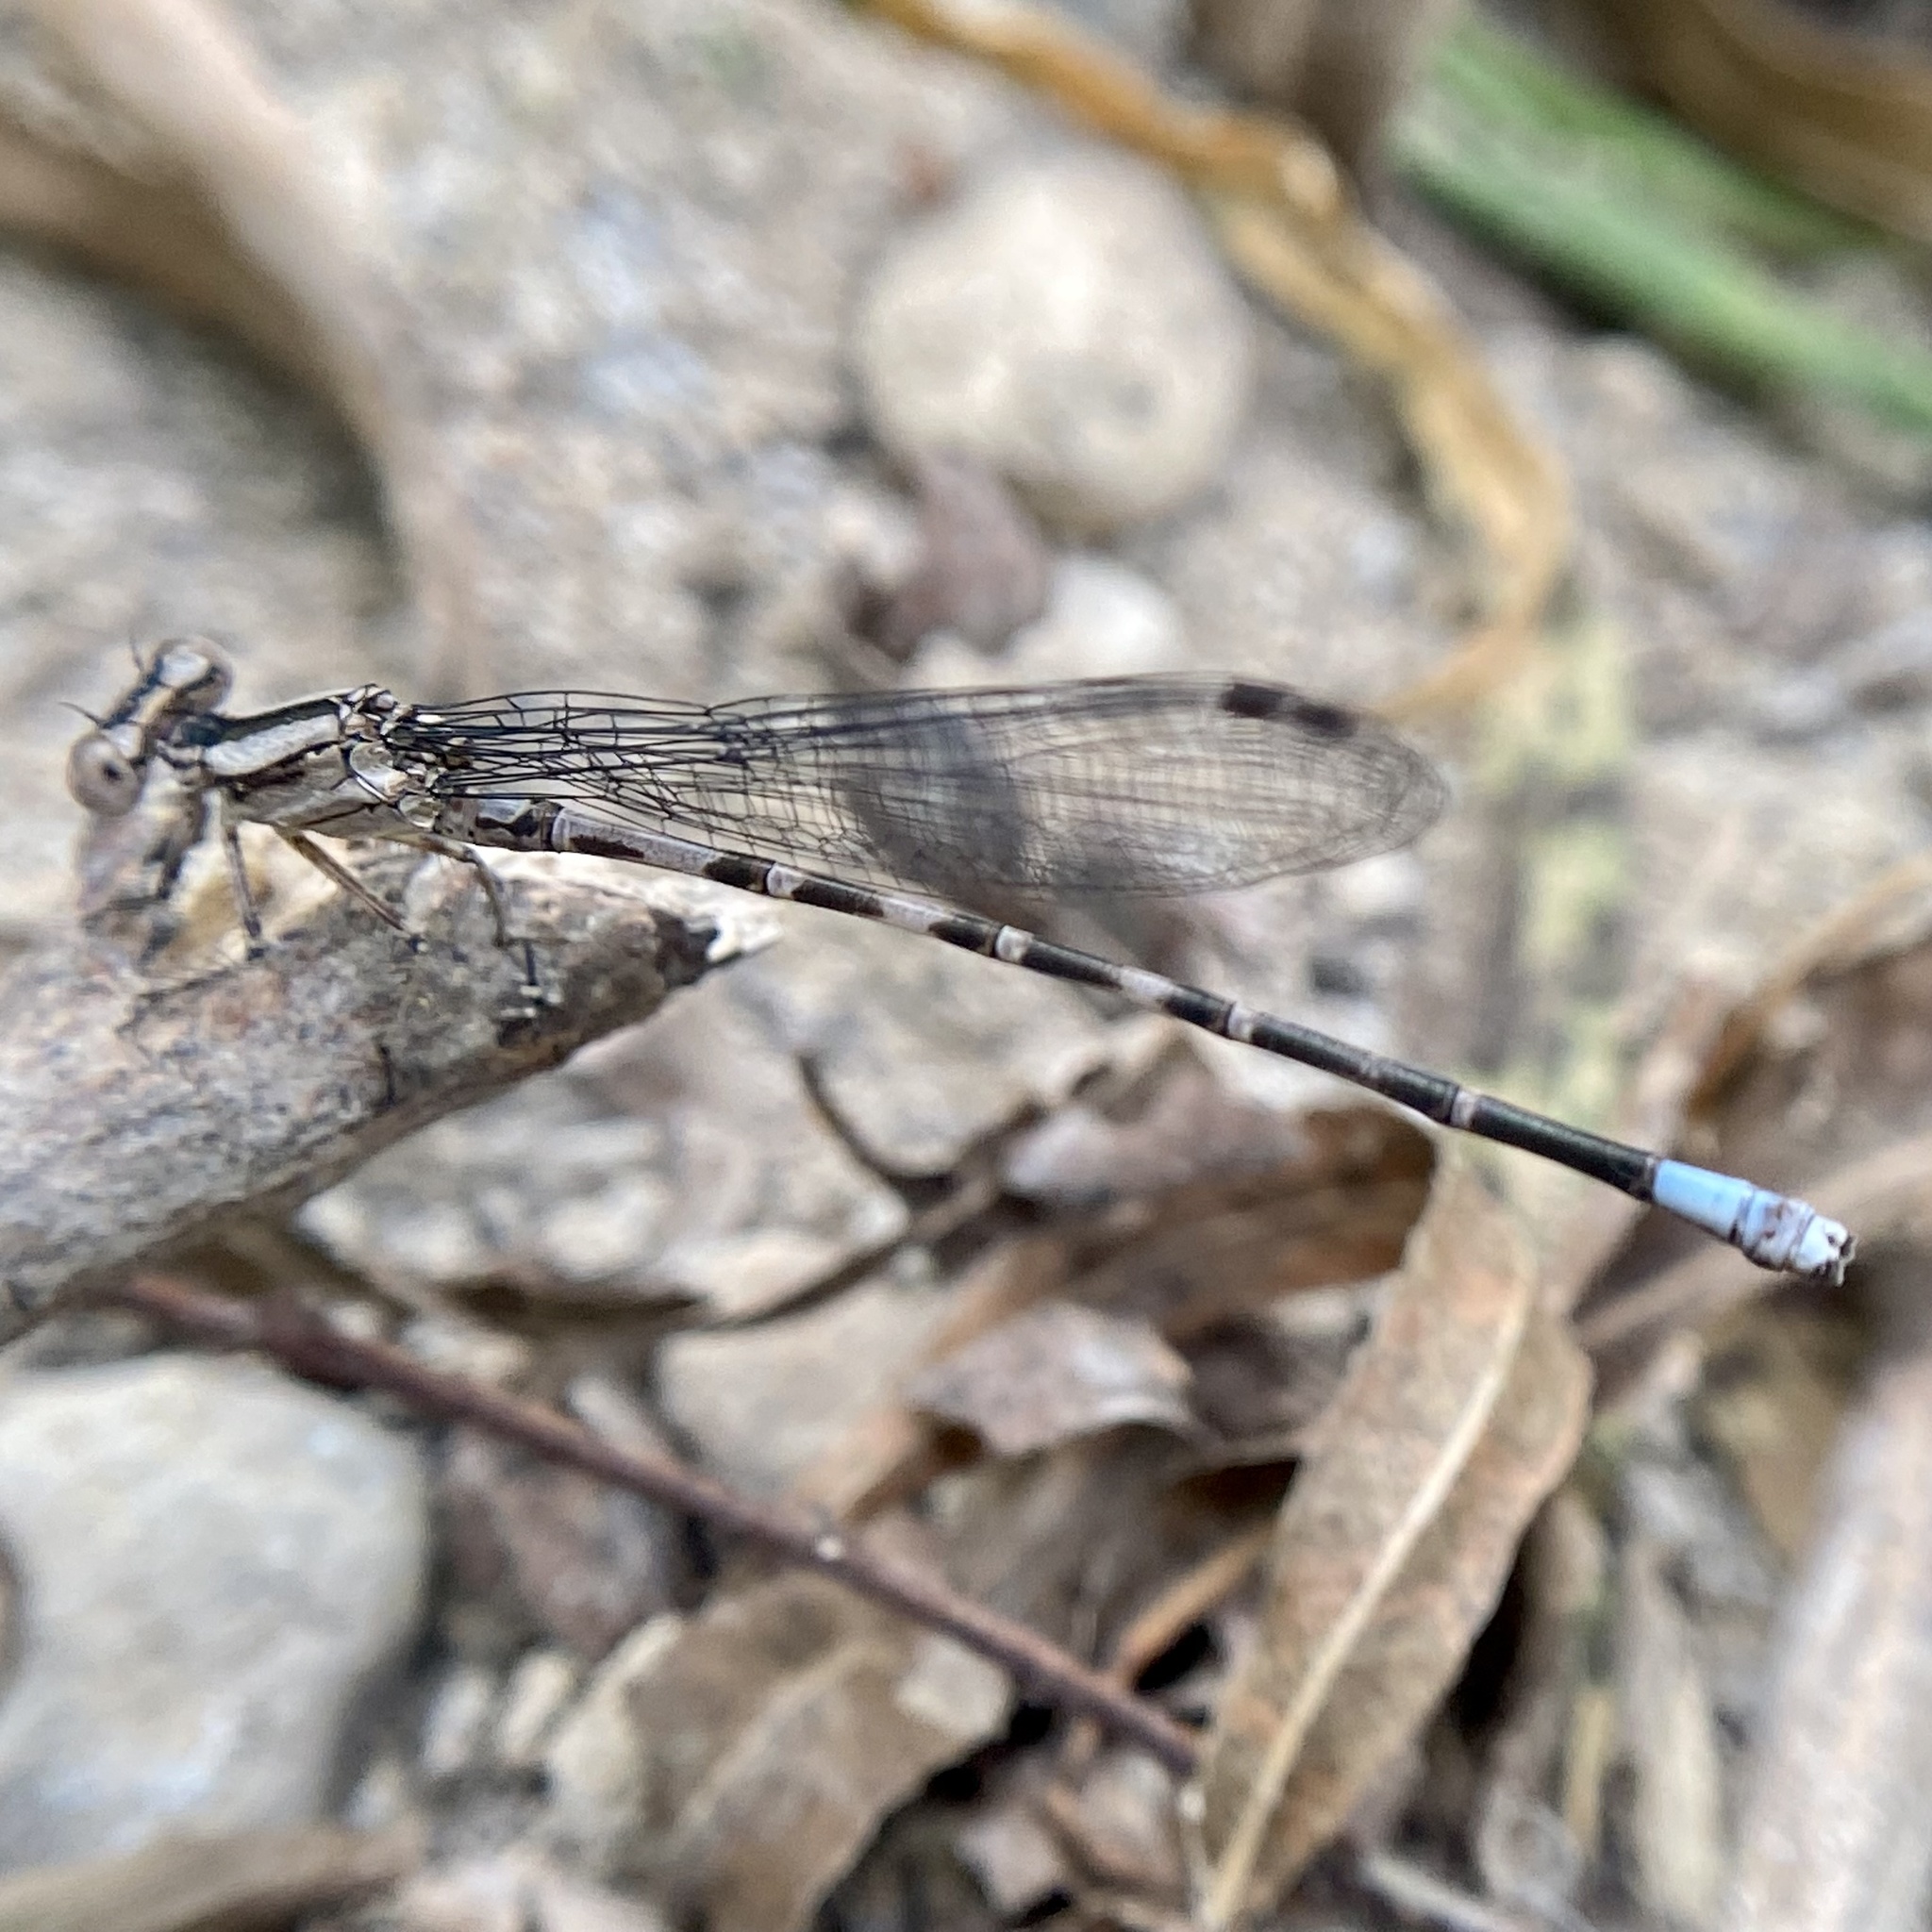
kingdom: Animalia
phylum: Arthropoda
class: Insecta
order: Odonata
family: Coenagrionidae
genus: Argia
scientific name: Argia immunda
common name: Kiowa dancer
